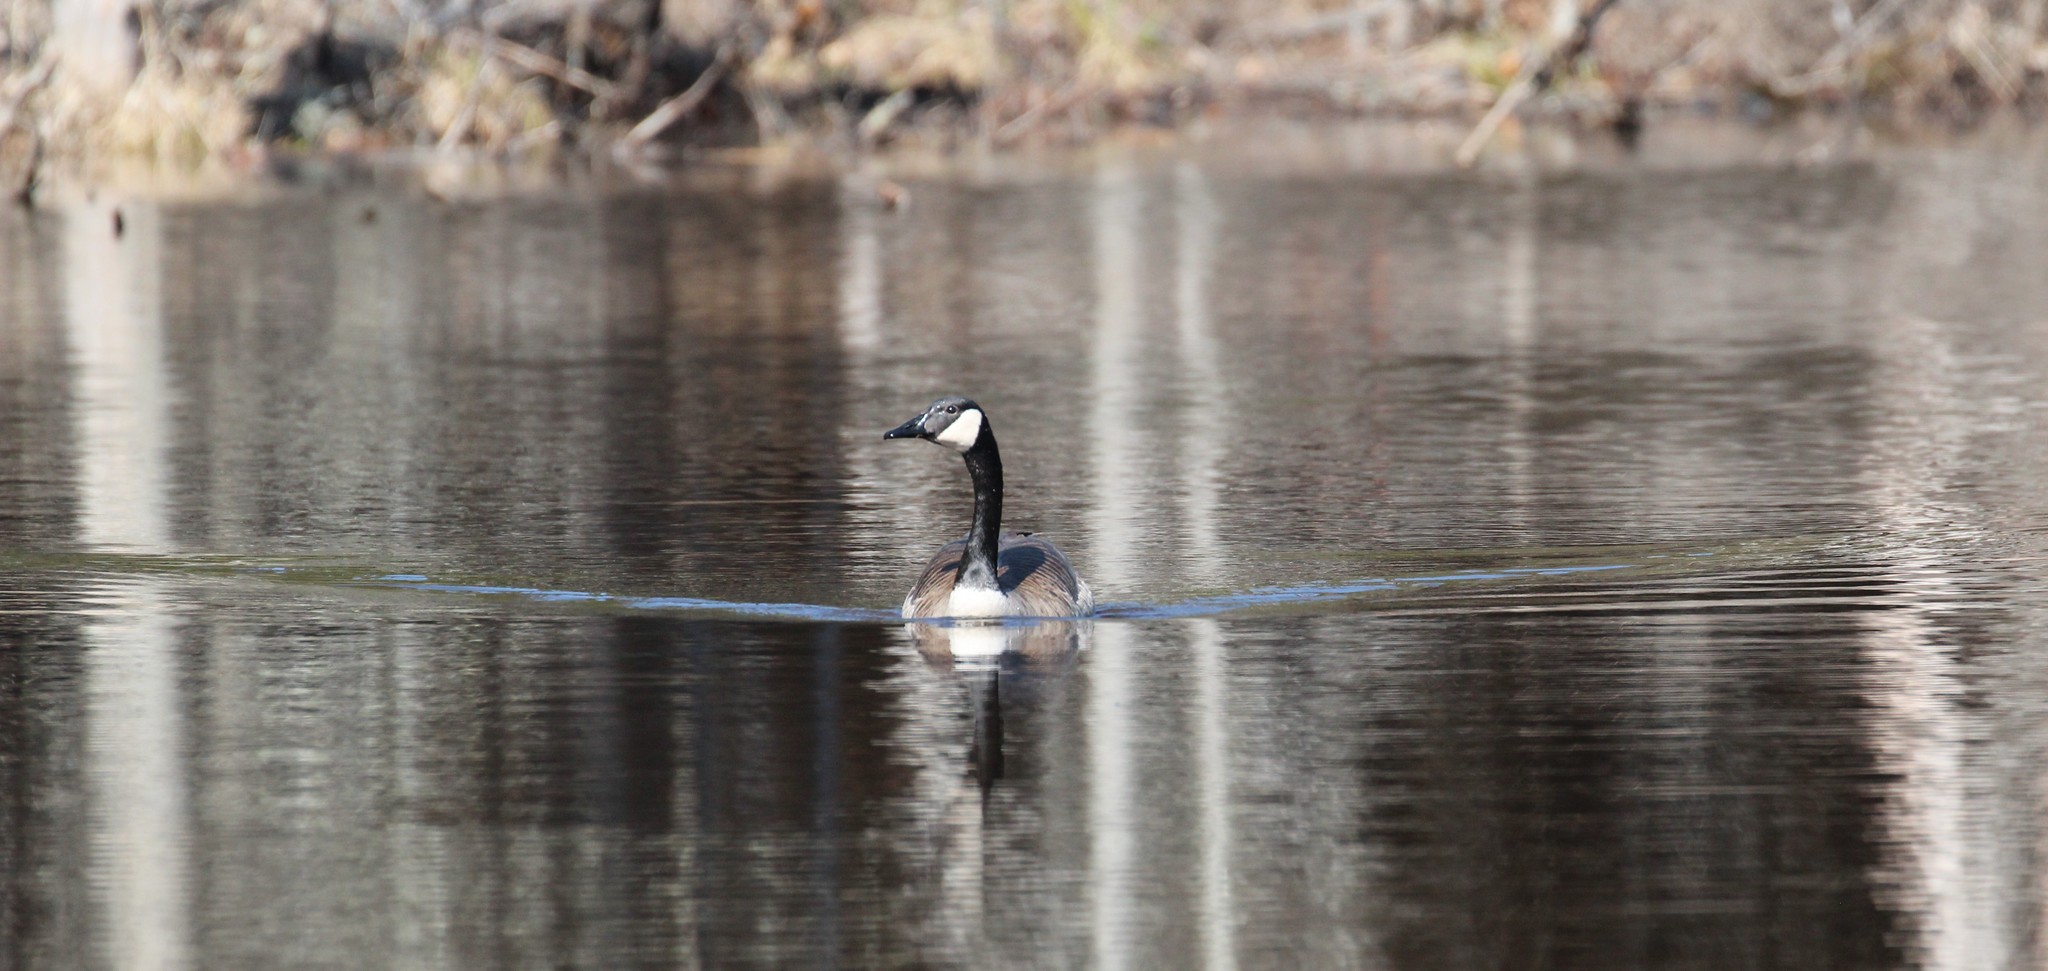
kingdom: Animalia
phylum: Chordata
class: Aves
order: Anseriformes
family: Anatidae
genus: Branta
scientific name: Branta canadensis
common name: Canada goose
